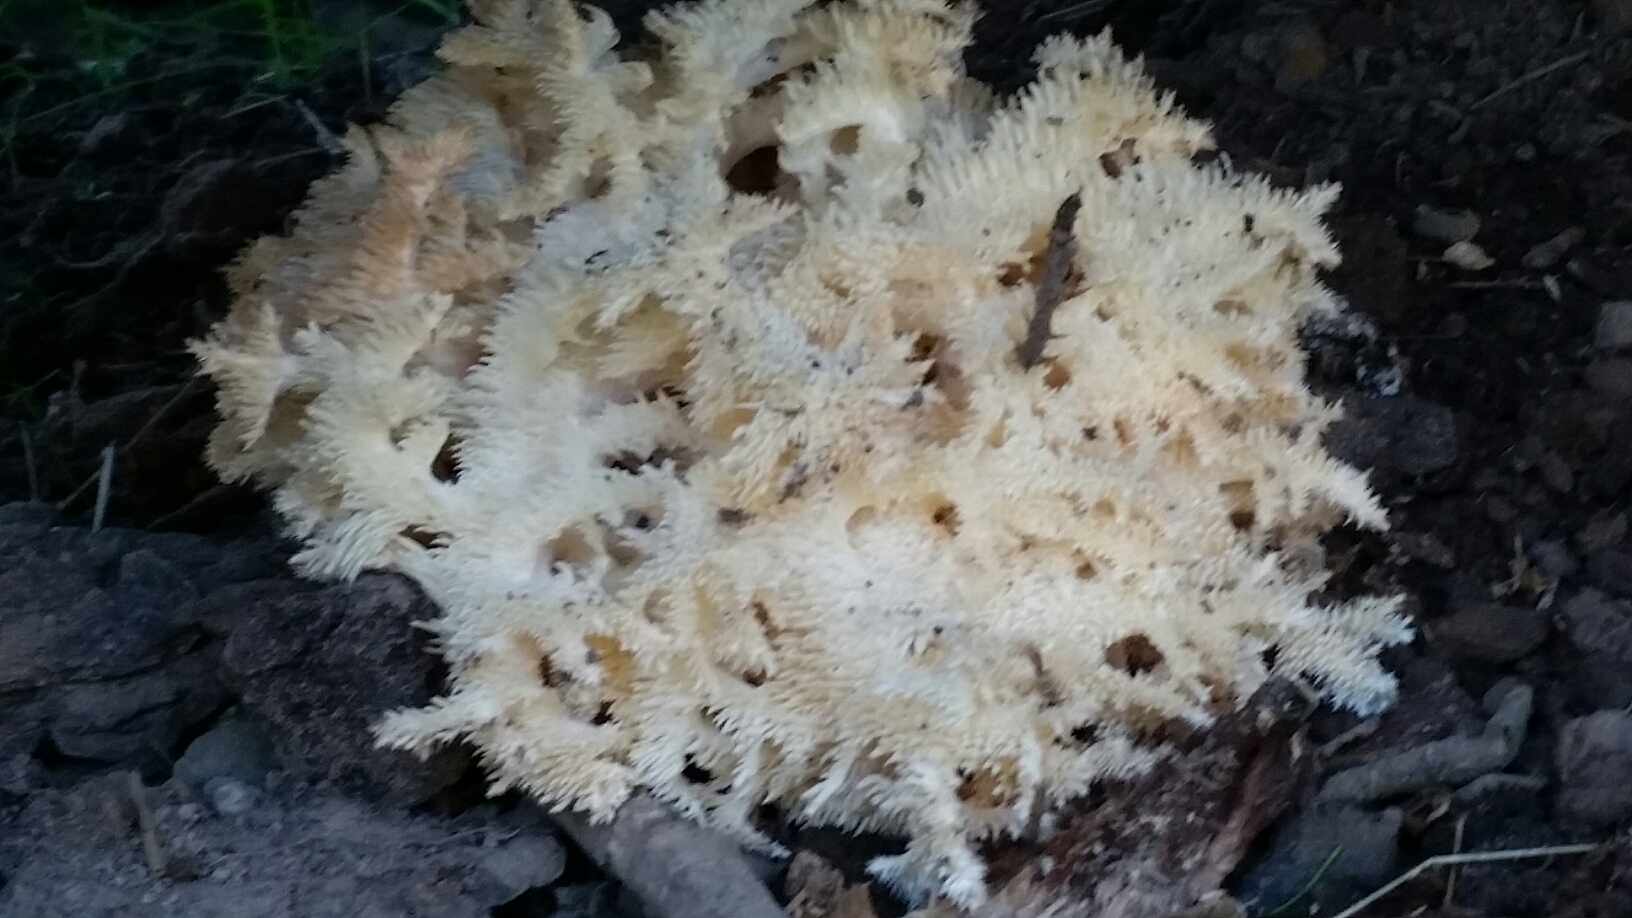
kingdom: Fungi
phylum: Basidiomycota
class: Agaricomycetes
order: Russulales
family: Hericiaceae
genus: Hericium
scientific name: Hericium coralloides
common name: Coral tooth
